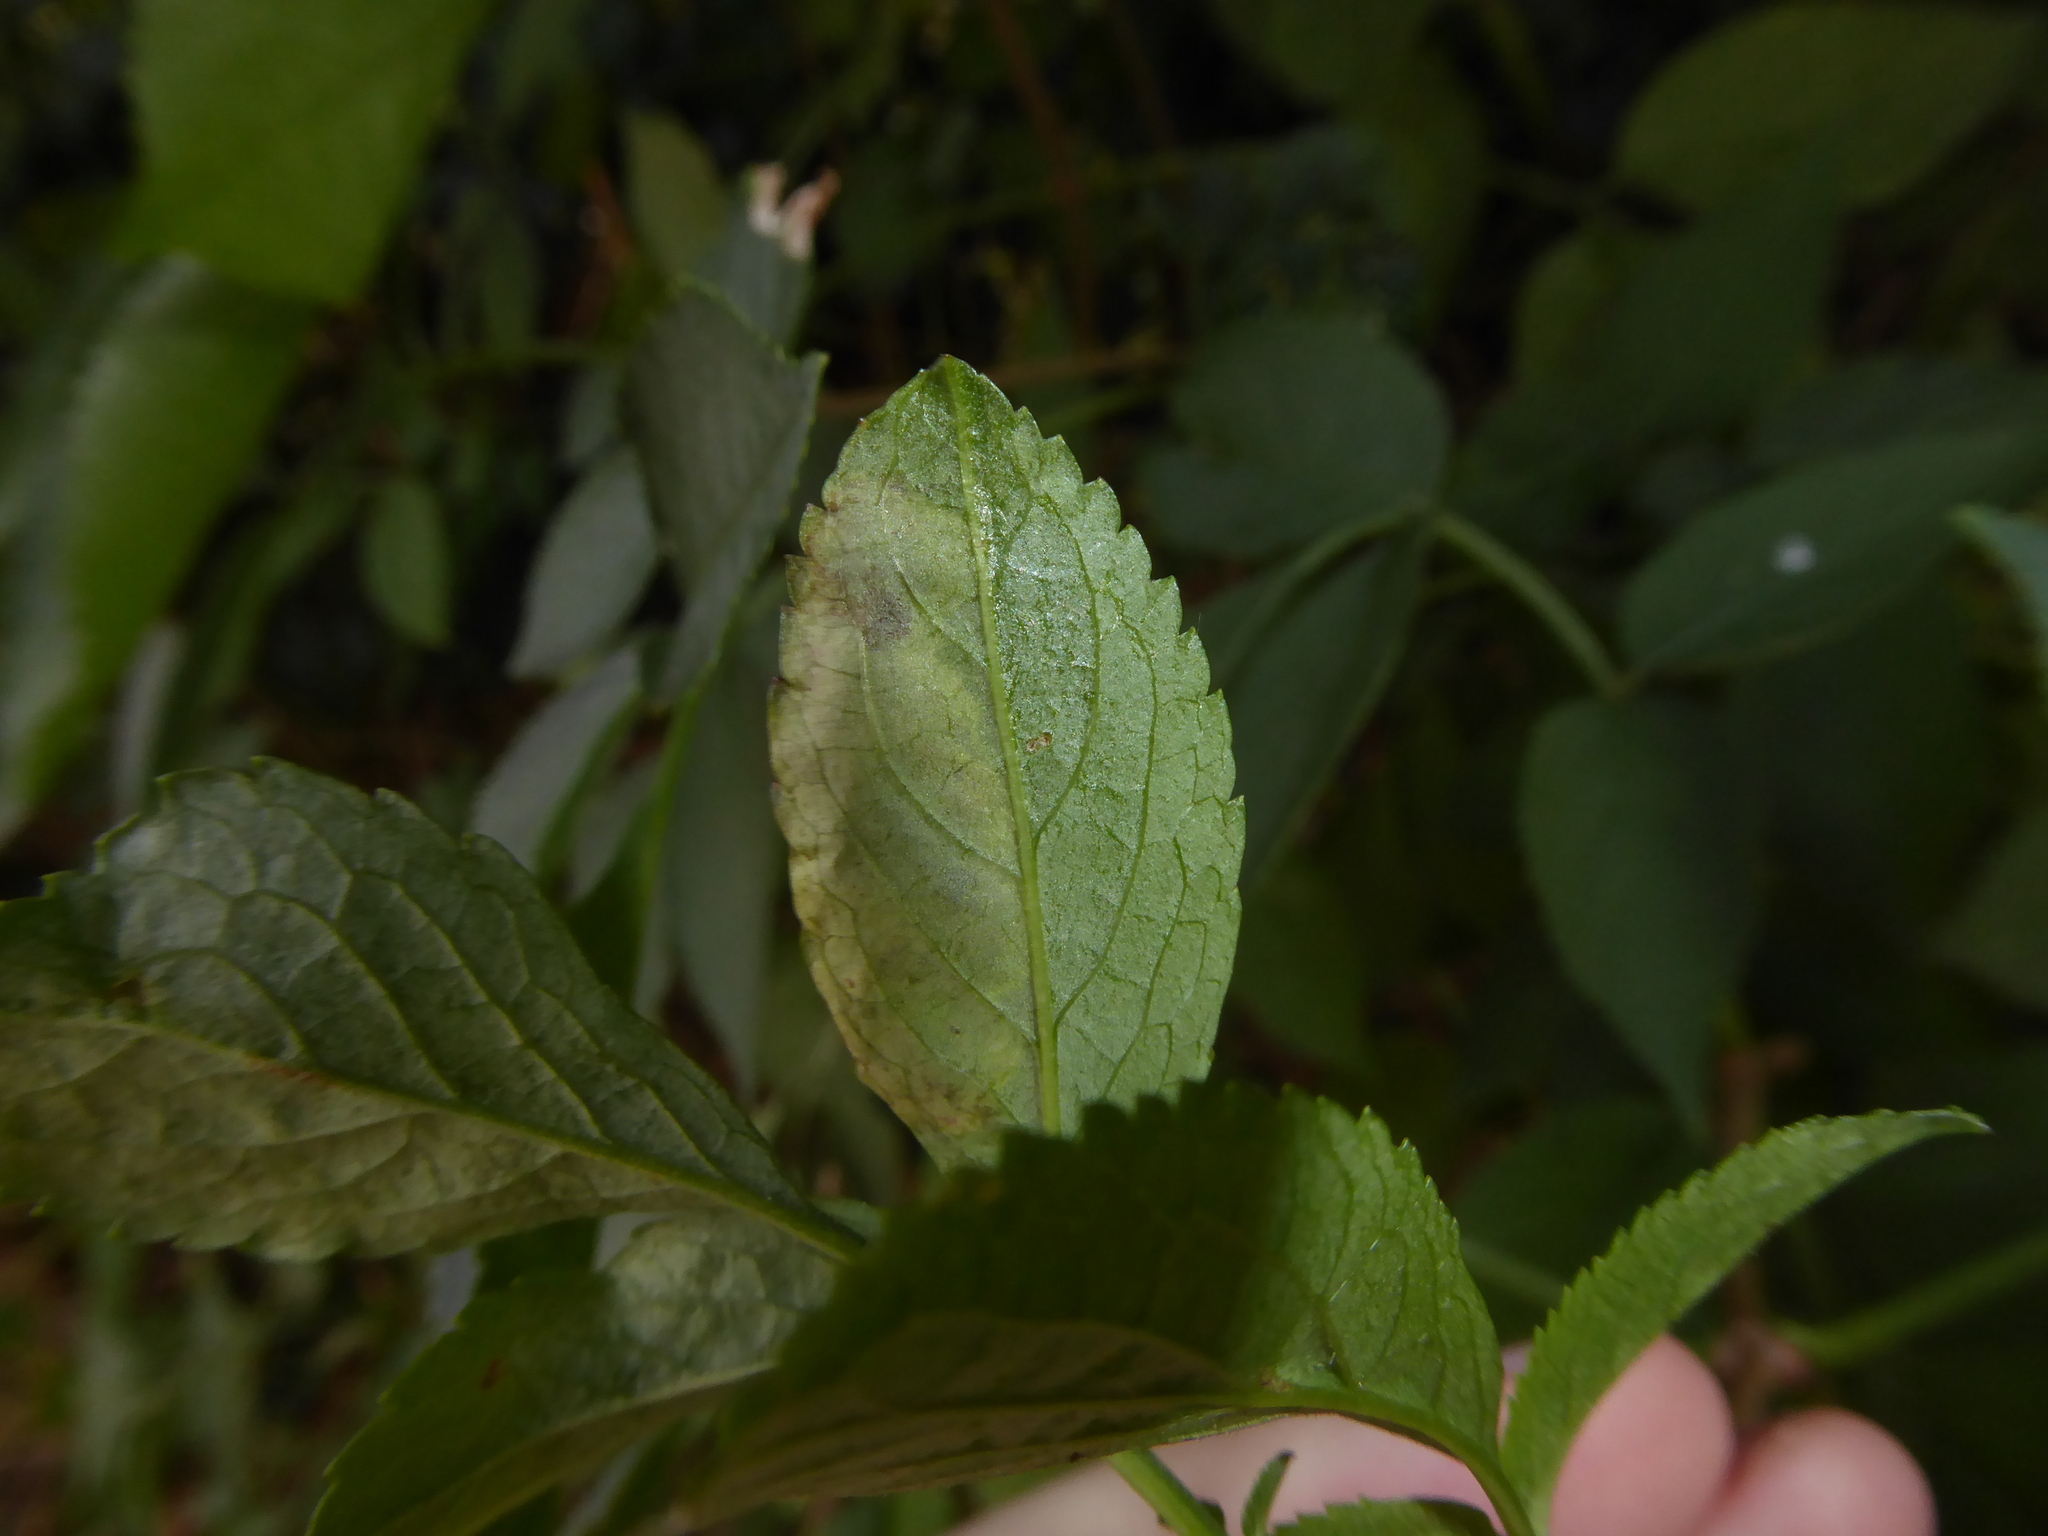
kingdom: Animalia
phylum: Arthropoda
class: Insecta
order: Diptera
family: Agromyzidae
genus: Liriomyza
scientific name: Liriomyza amoena
